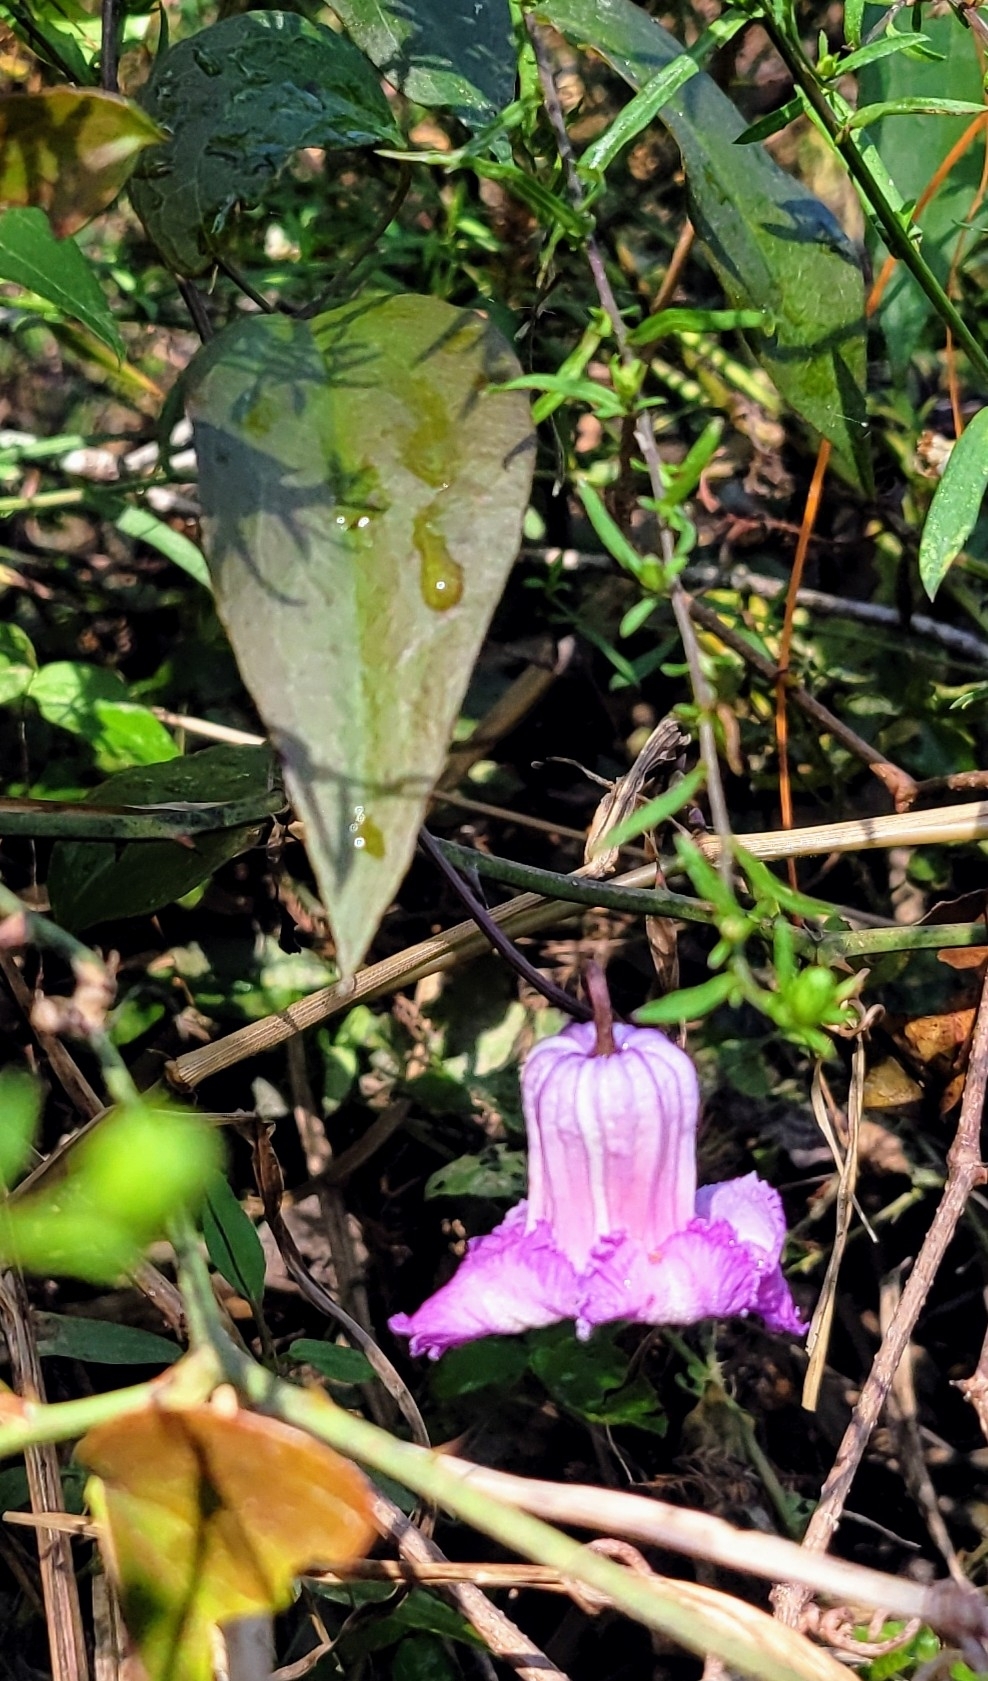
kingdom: Plantae
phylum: Tracheophyta
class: Magnoliopsida
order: Ranunculales
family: Ranunculaceae
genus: Clematis
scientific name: Clematis crispa
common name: Curly clematis
